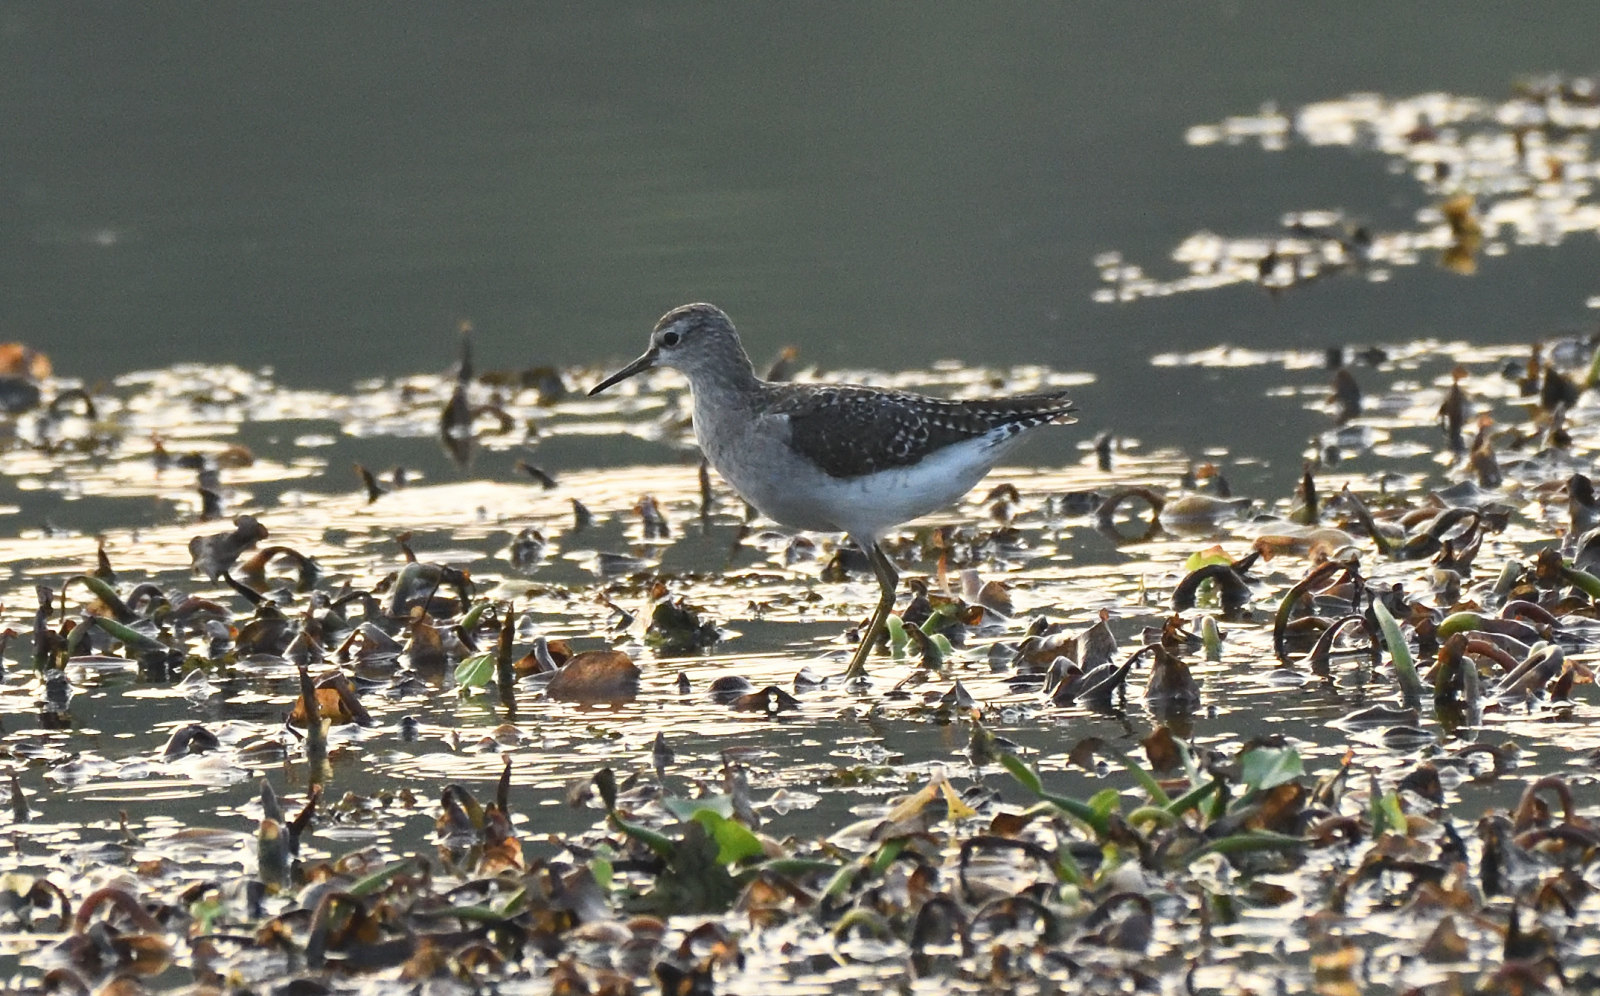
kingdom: Animalia
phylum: Chordata
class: Aves
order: Charadriiformes
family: Scolopacidae
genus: Tringa
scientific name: Tringa glareola
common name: Wood sandpiper
